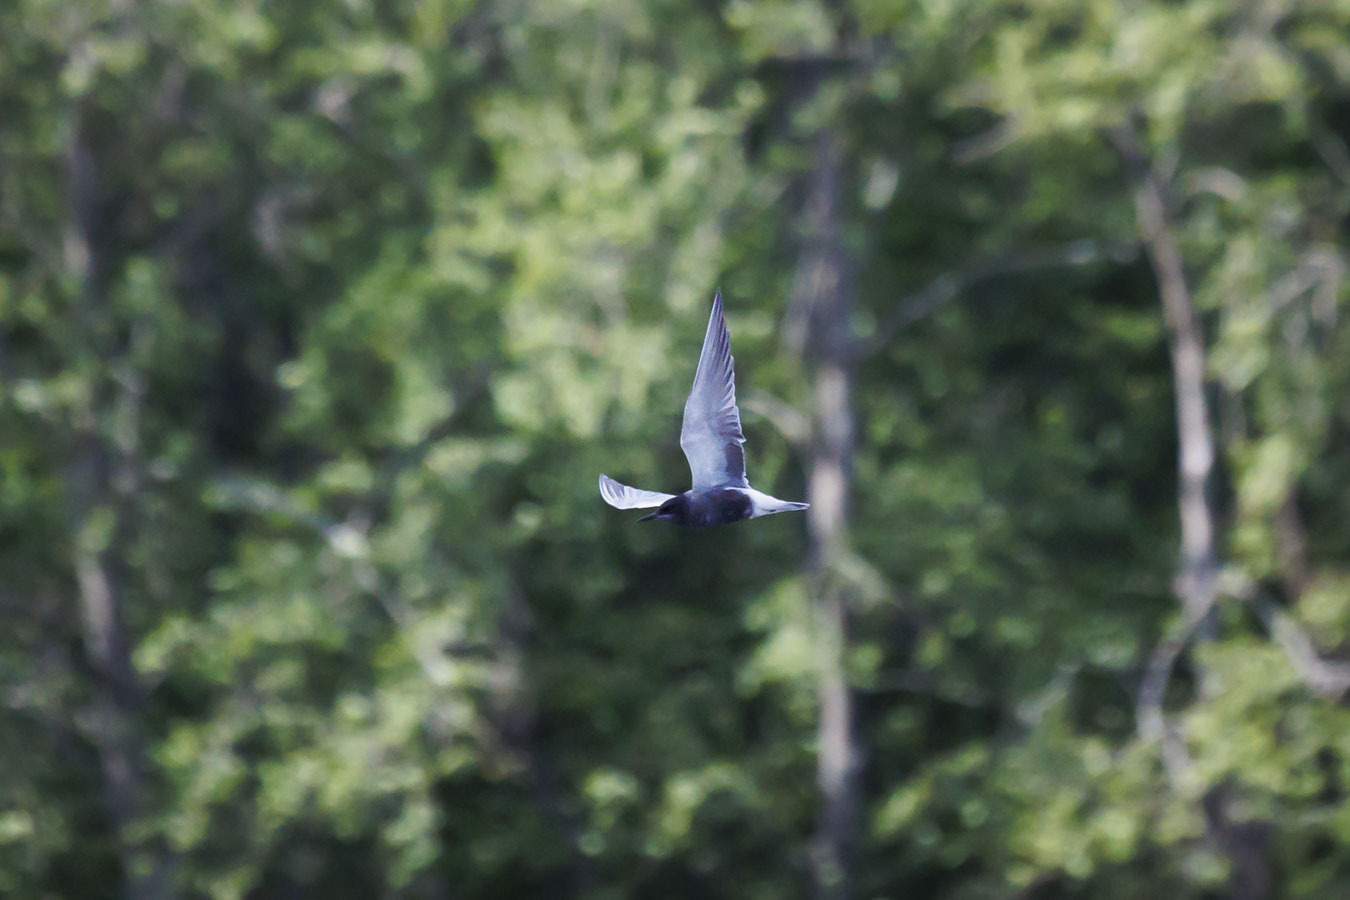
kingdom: Animalia
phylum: Chordata
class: Aves
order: Charadriiformes
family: Laridae
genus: Chlidonias
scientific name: Chlidonias niger
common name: Black tern
